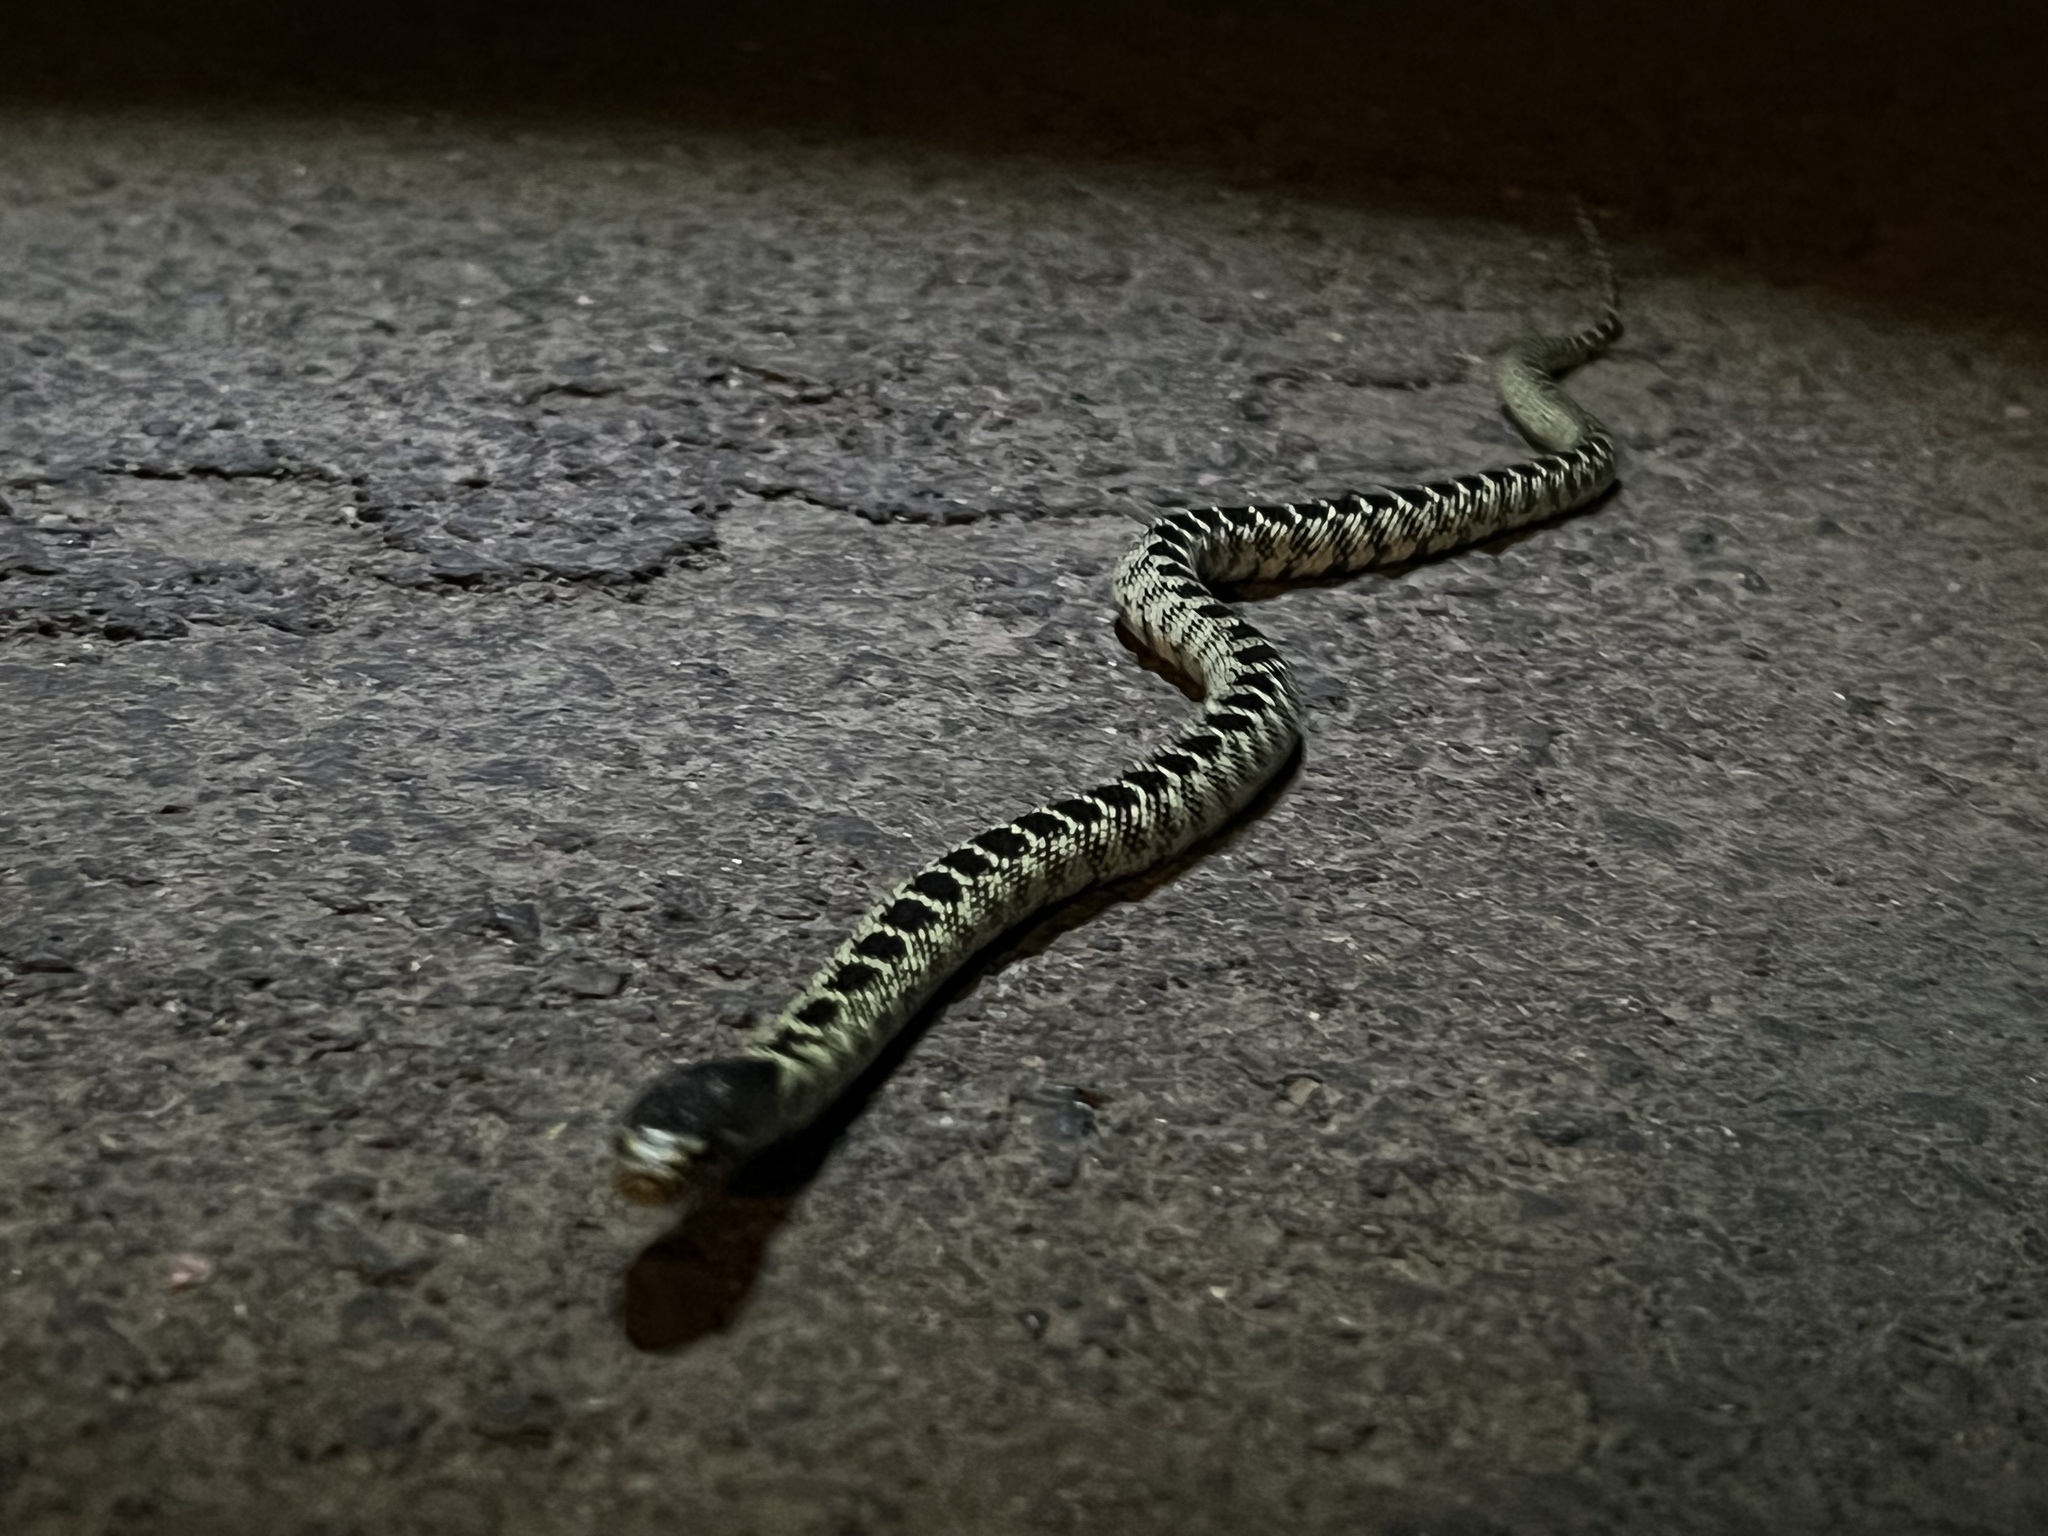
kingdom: Animalia
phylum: Chordata
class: Squamata
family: Colubridae
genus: Lampropeltis
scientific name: Lampropeltis splendida
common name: Desert kingsnake
